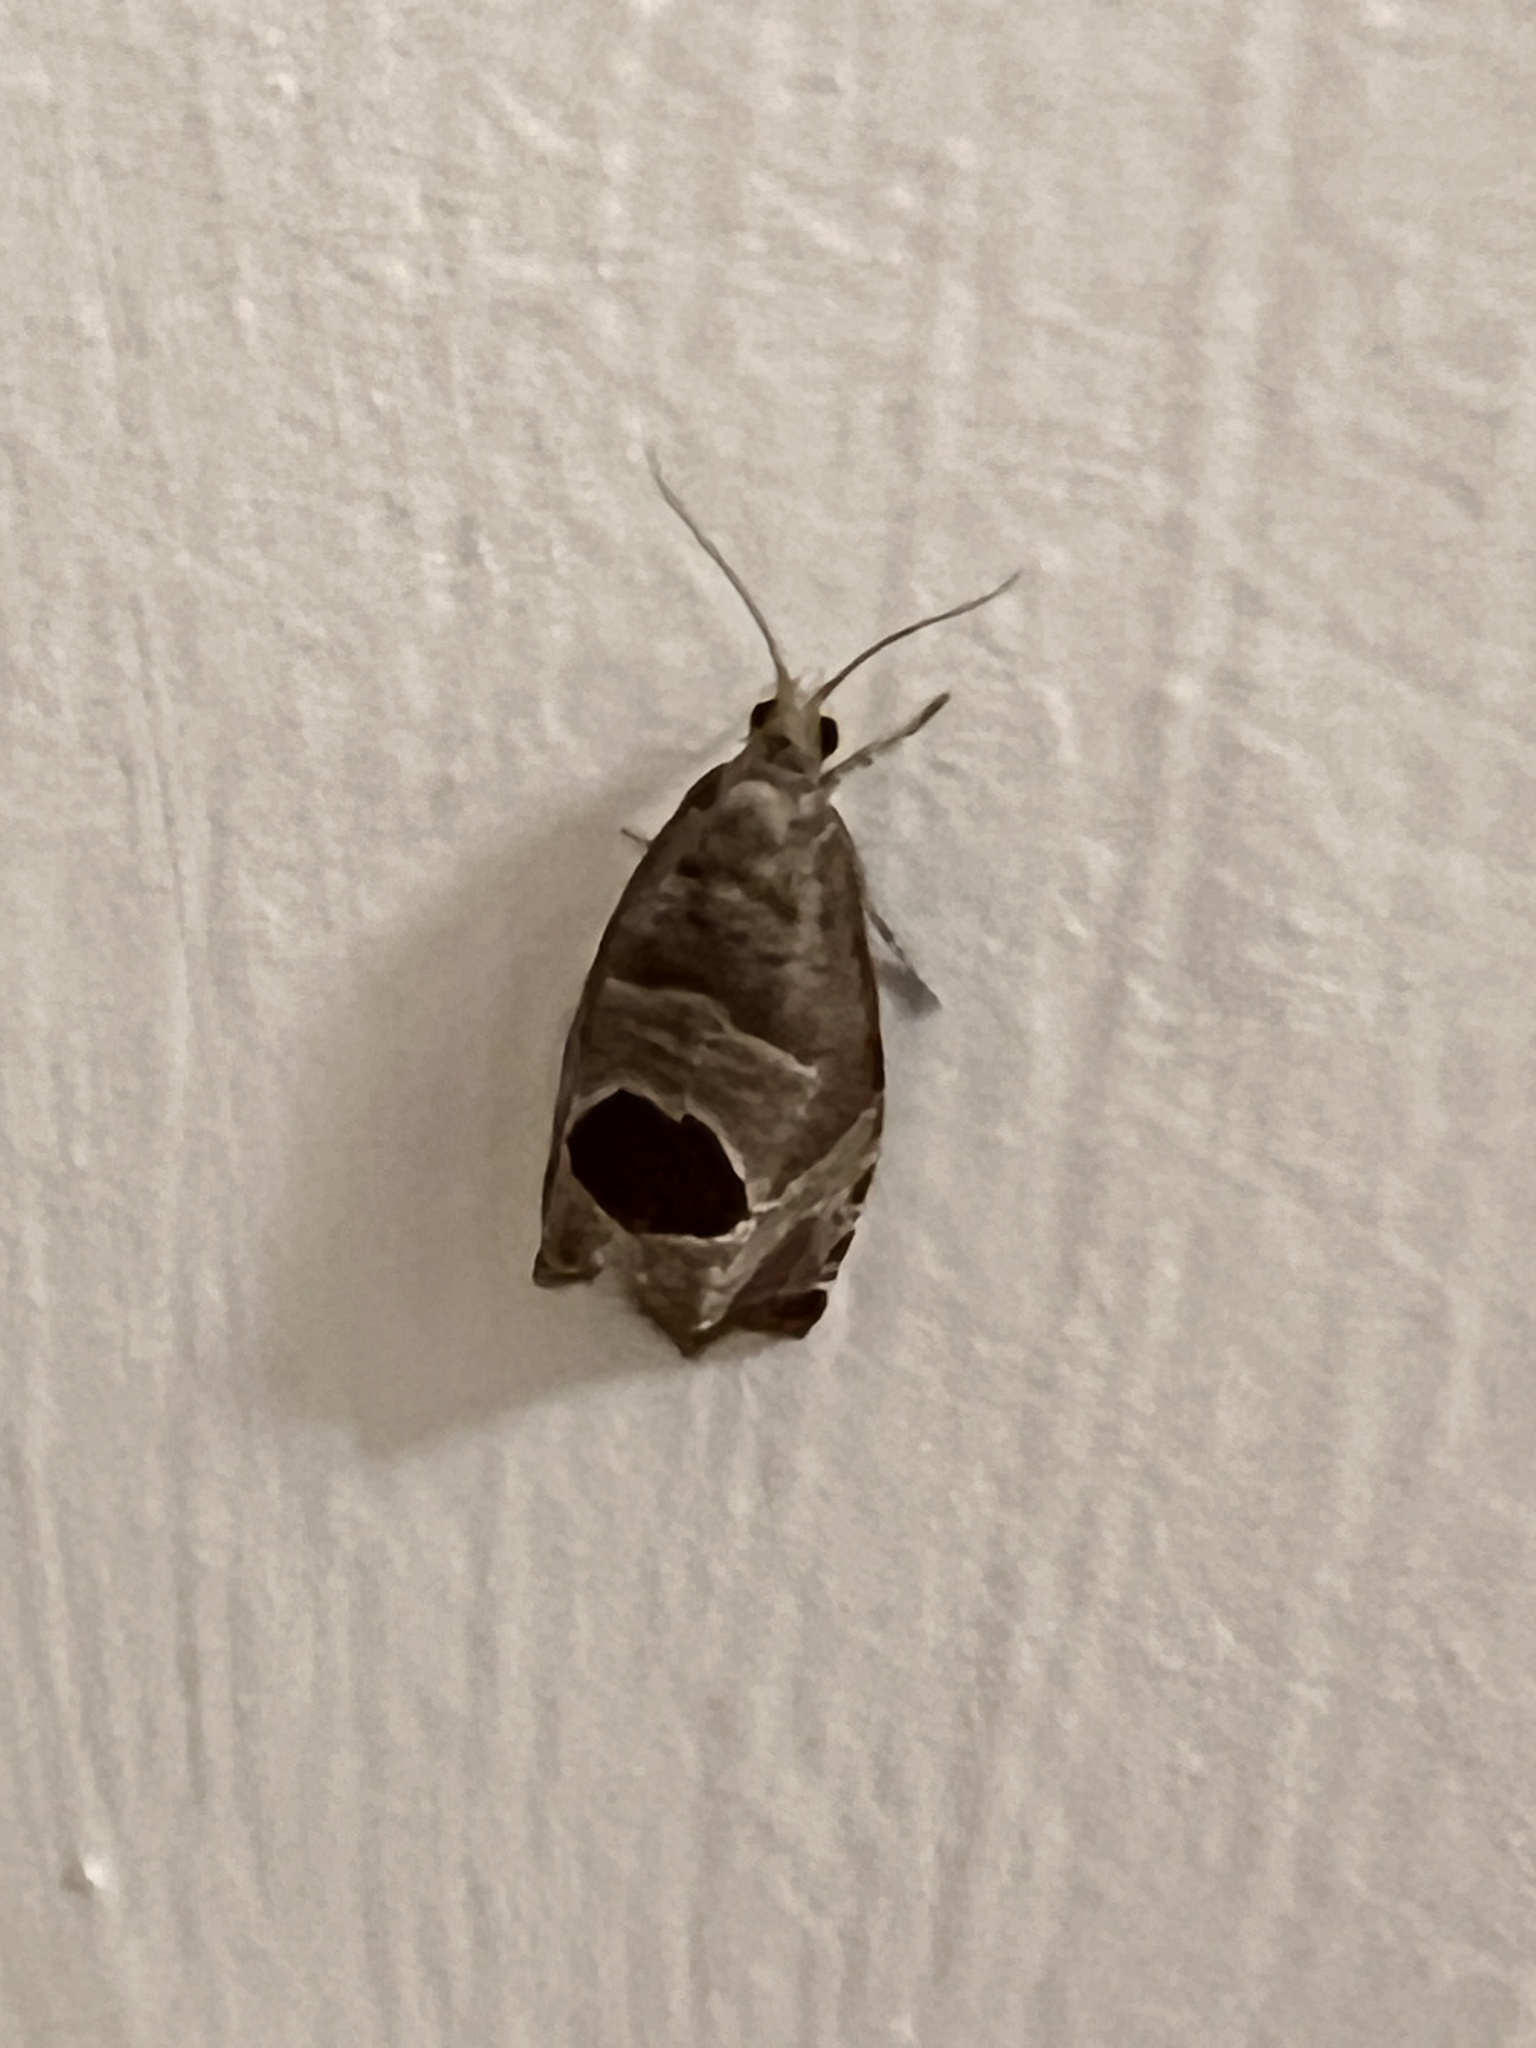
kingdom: Animalia
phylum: Arthropoda
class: Insecta
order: Lepidoptera
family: Tortricidae
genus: Notocelia
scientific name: Notocelia uddmanniana
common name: Bramble shoot moth
